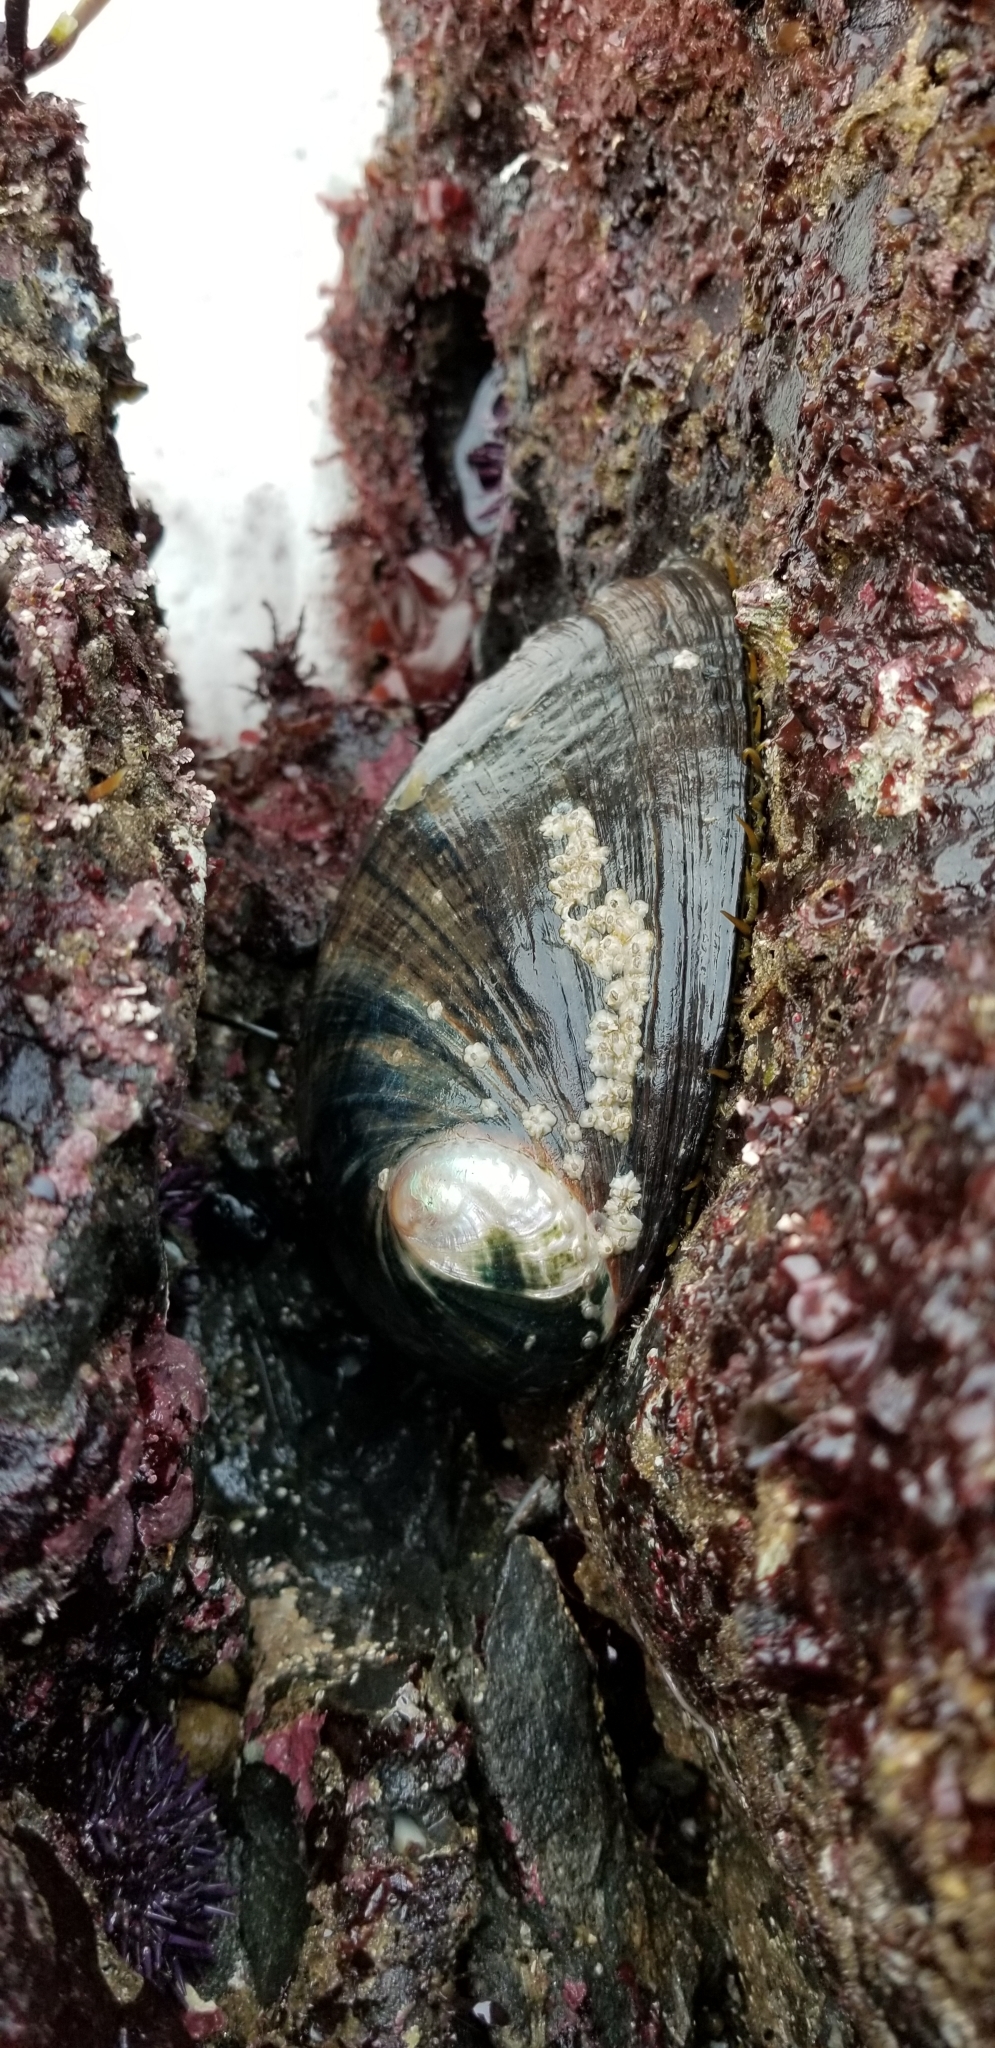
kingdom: Animalia
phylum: Mollusca
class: Gastropoda
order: Lepetellida
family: Haliotidae
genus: Haliotis
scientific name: Haliotis cracherodii
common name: Black abalone
